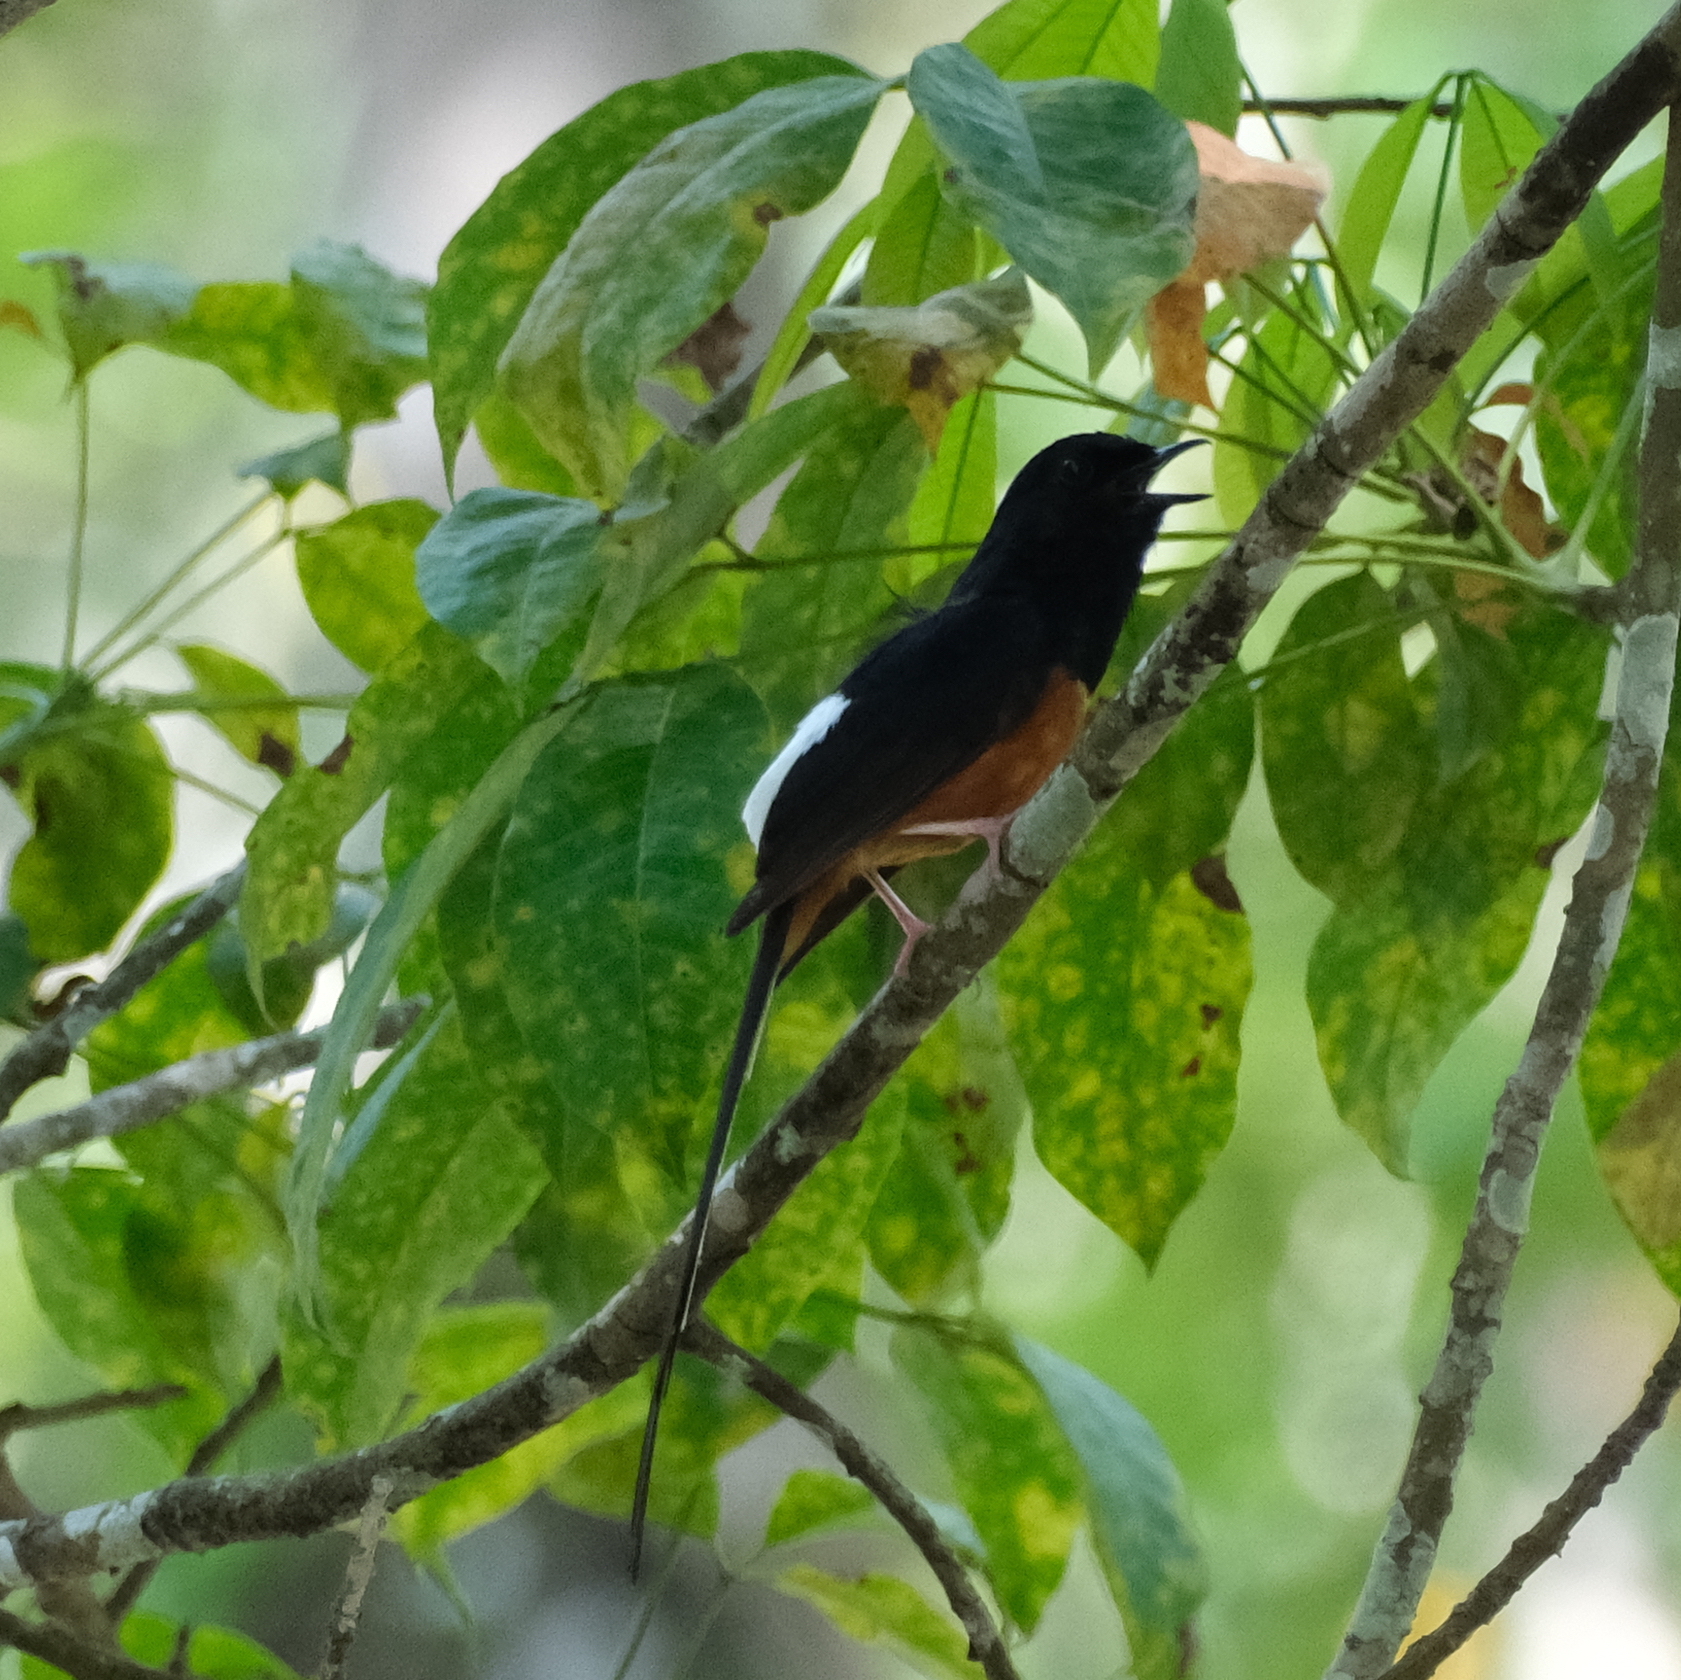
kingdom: Animalia
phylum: Chordata
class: Aves
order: Passeriformes
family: Muscicapidae
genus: Copsychus
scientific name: Copsychus malabaricus
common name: White-rumped shama
